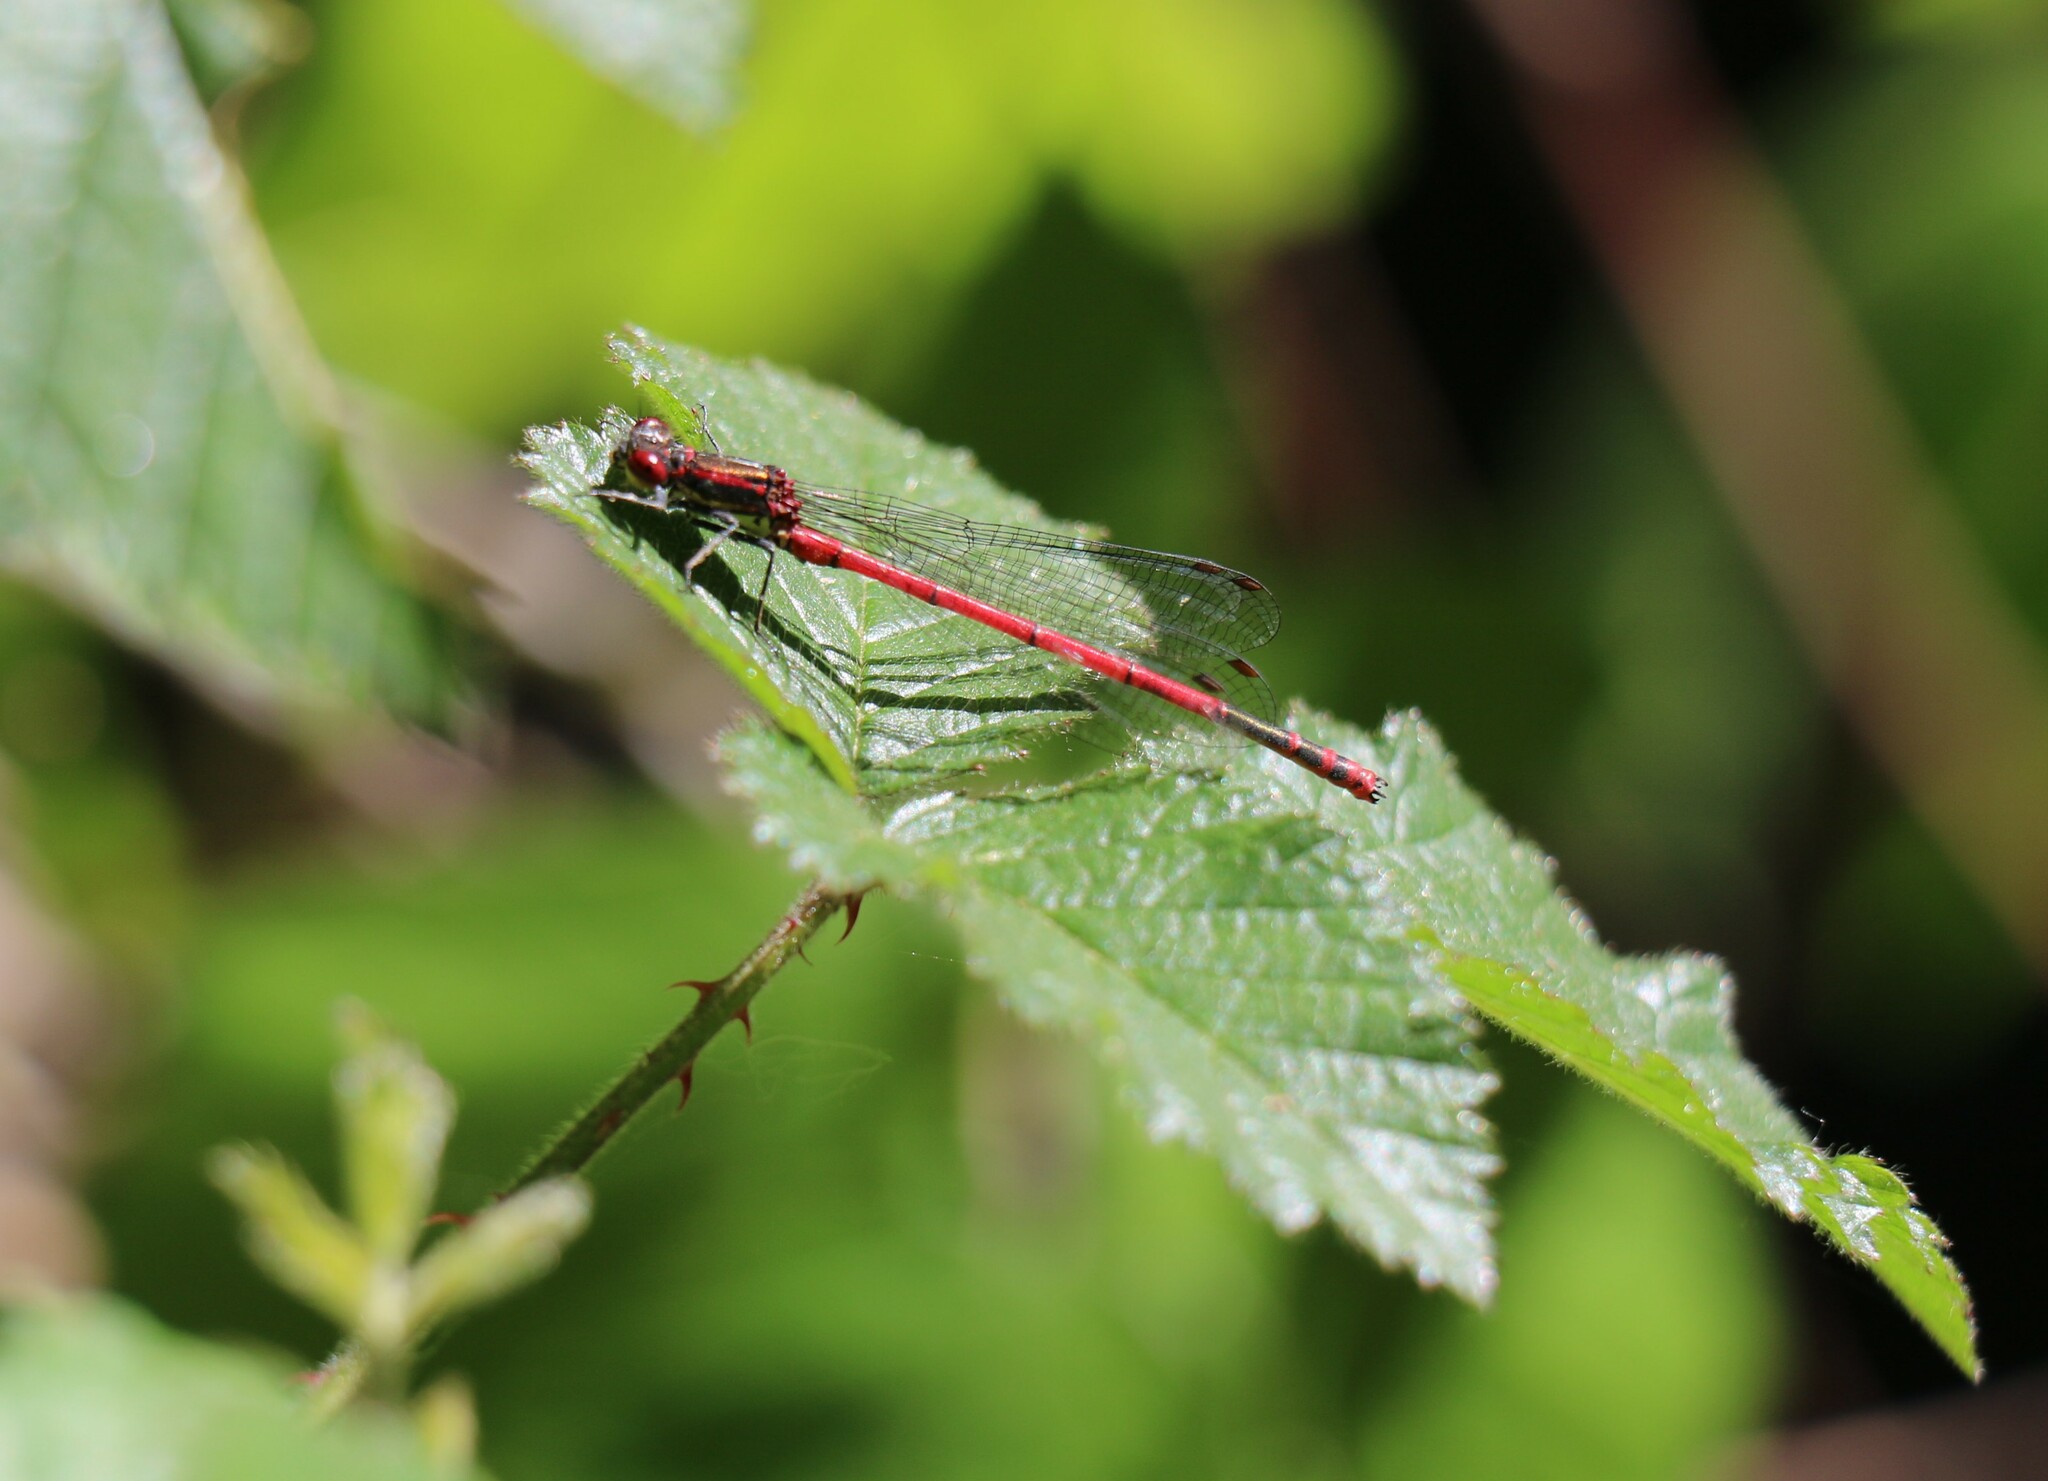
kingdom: Animalia
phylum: Arthropoda
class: Insecta
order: Odonata
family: Coenagrionidae
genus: Pyrrhosoma
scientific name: Pyrrhosoma nymphula
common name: Large red damsel
